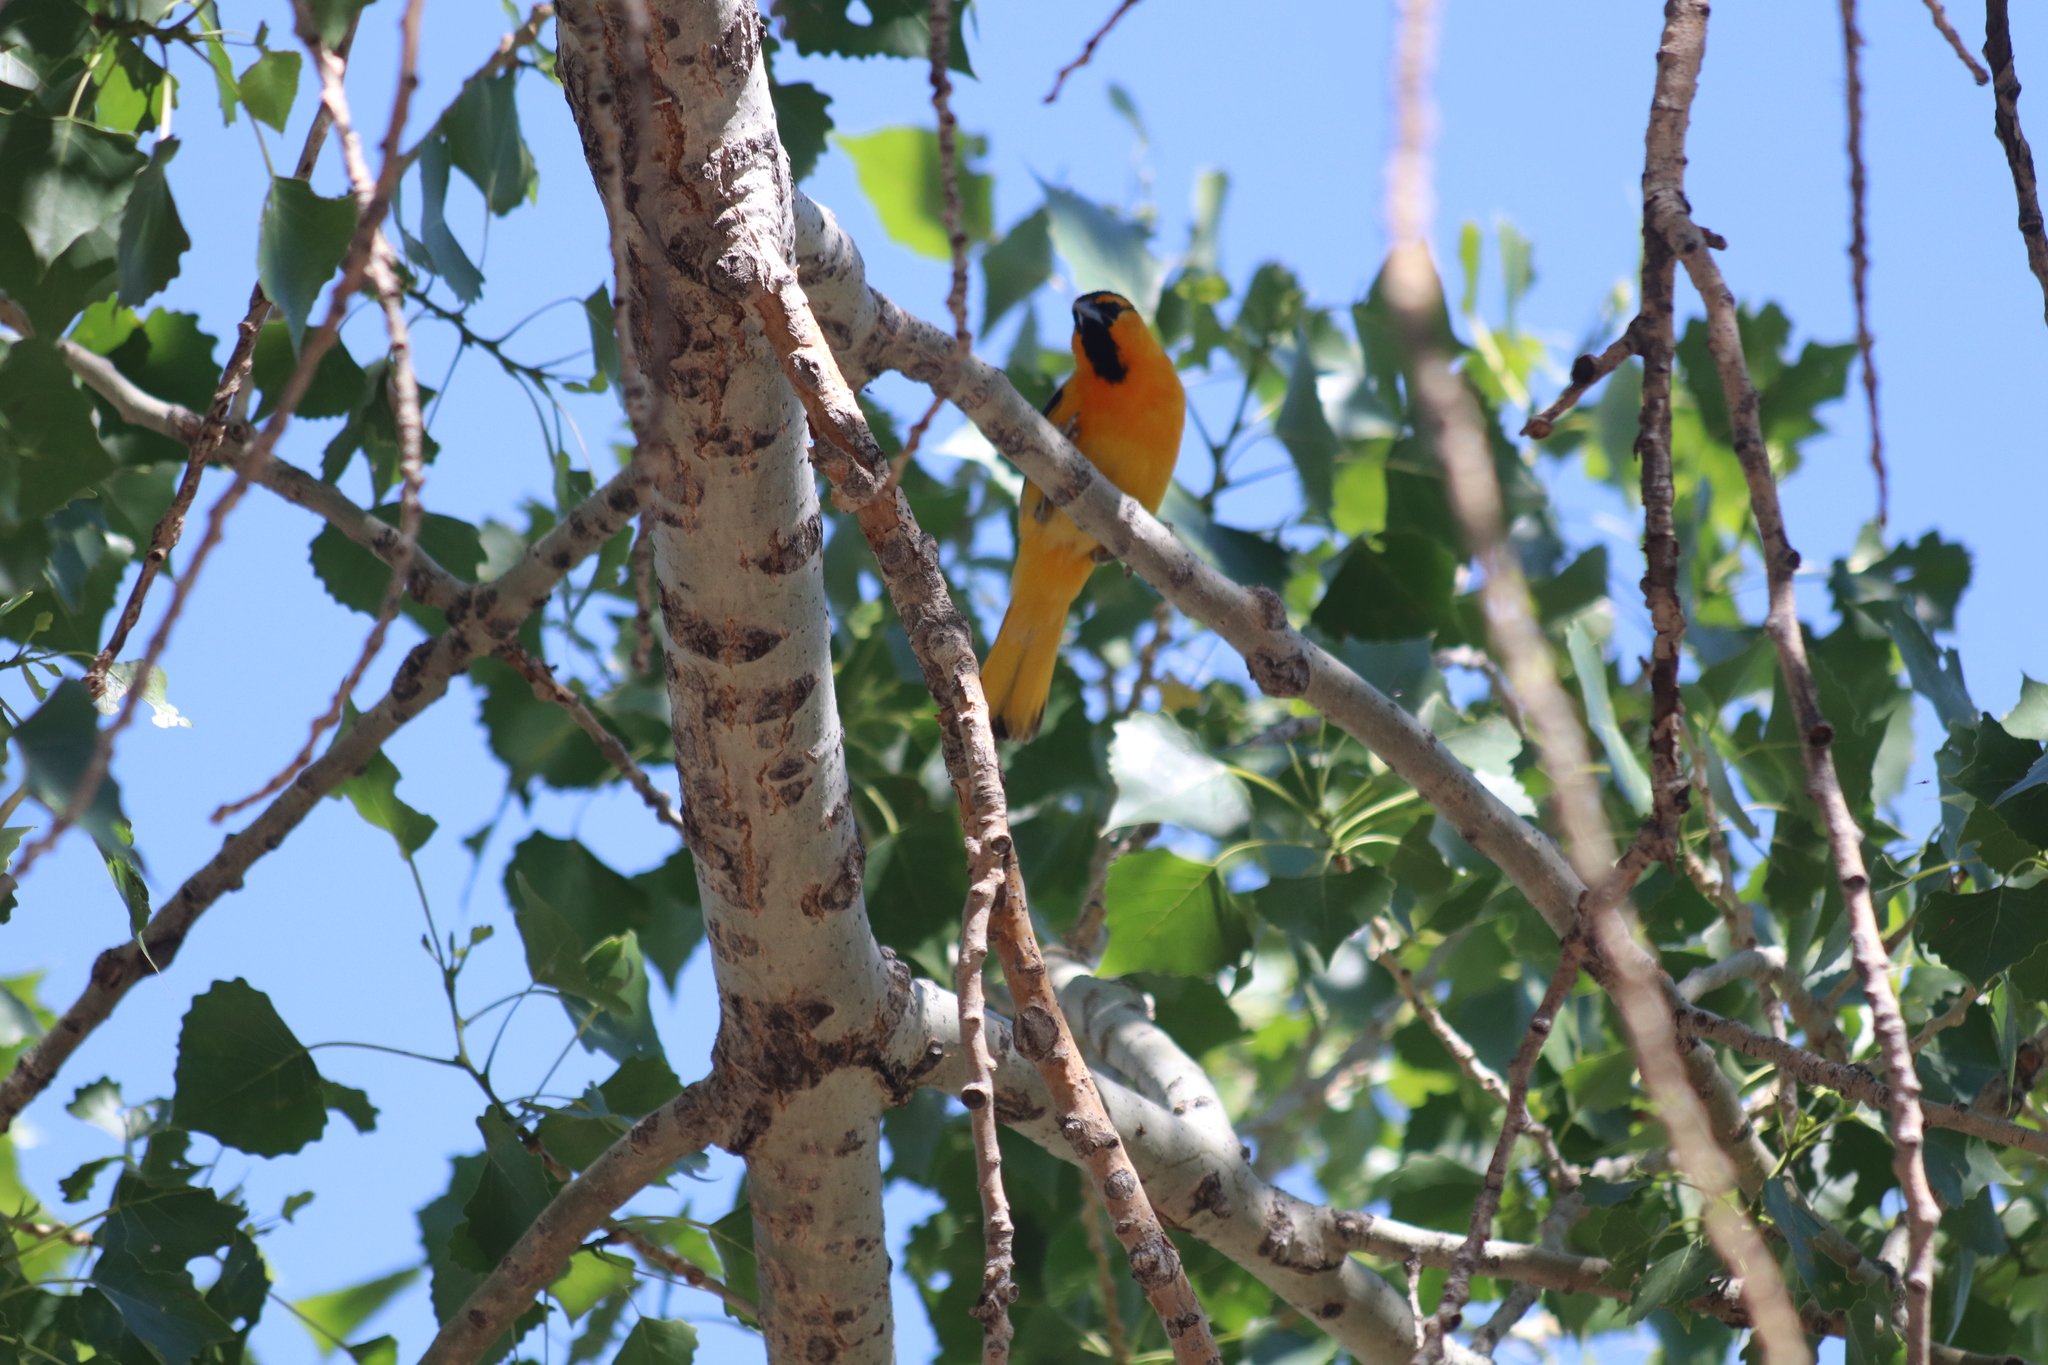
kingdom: Animalia
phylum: Chordata
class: Aves
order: Passeriformes
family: Icteridae
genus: Icterus
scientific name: Icterus bullockii
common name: Bullock's oriole
